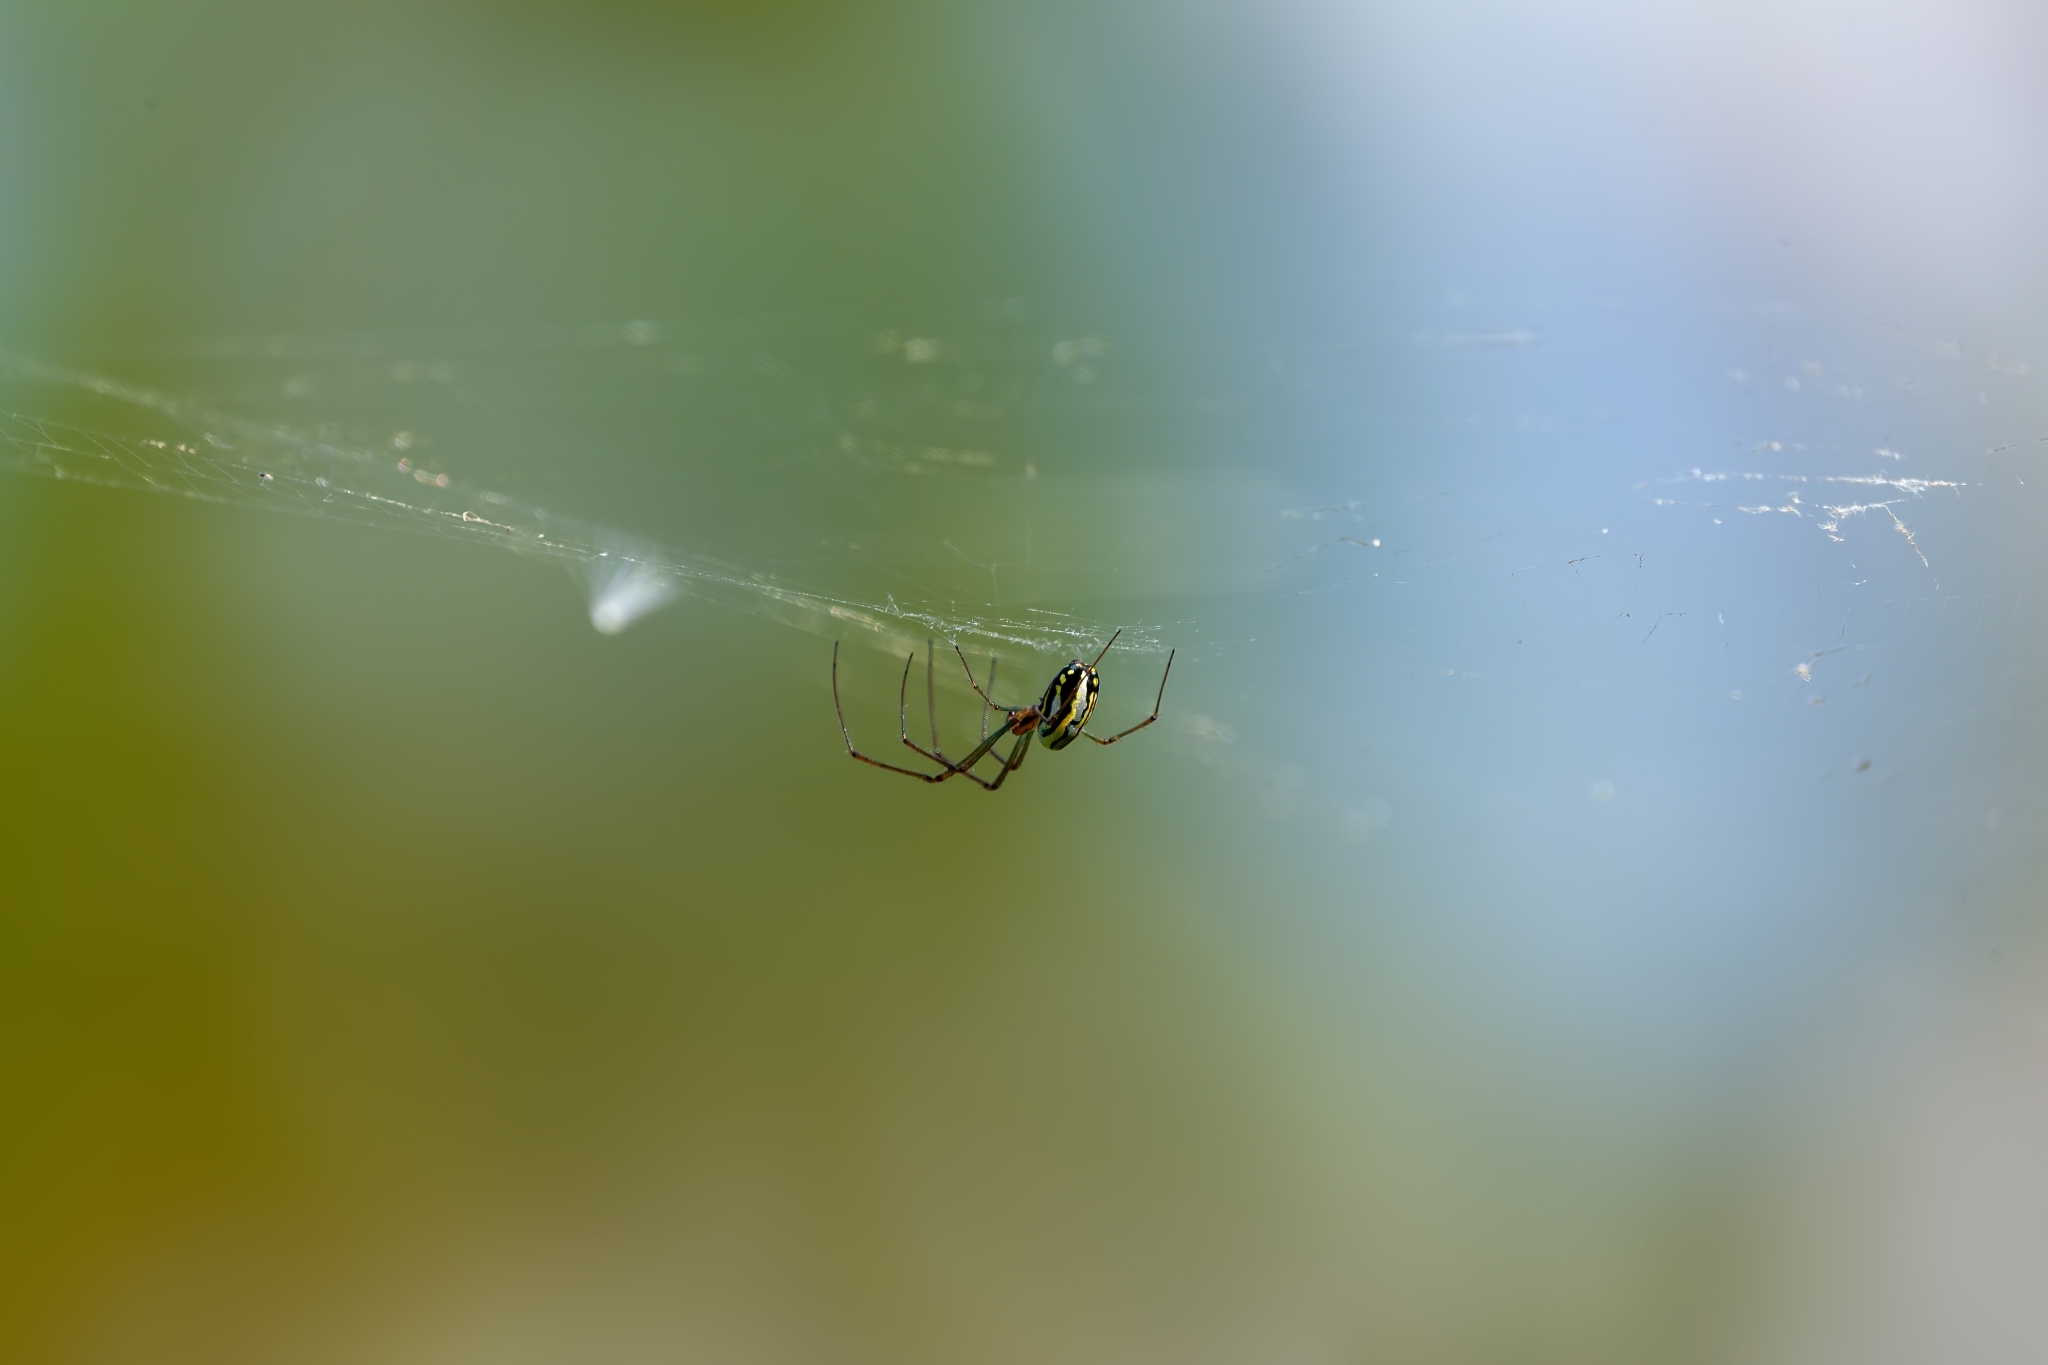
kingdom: Animalia
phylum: Arthropoda
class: Arachnida
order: Araneae
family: Tetragnathidae
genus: Leucauge
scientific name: Leucauge argyra
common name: Longjawed orb weavers
